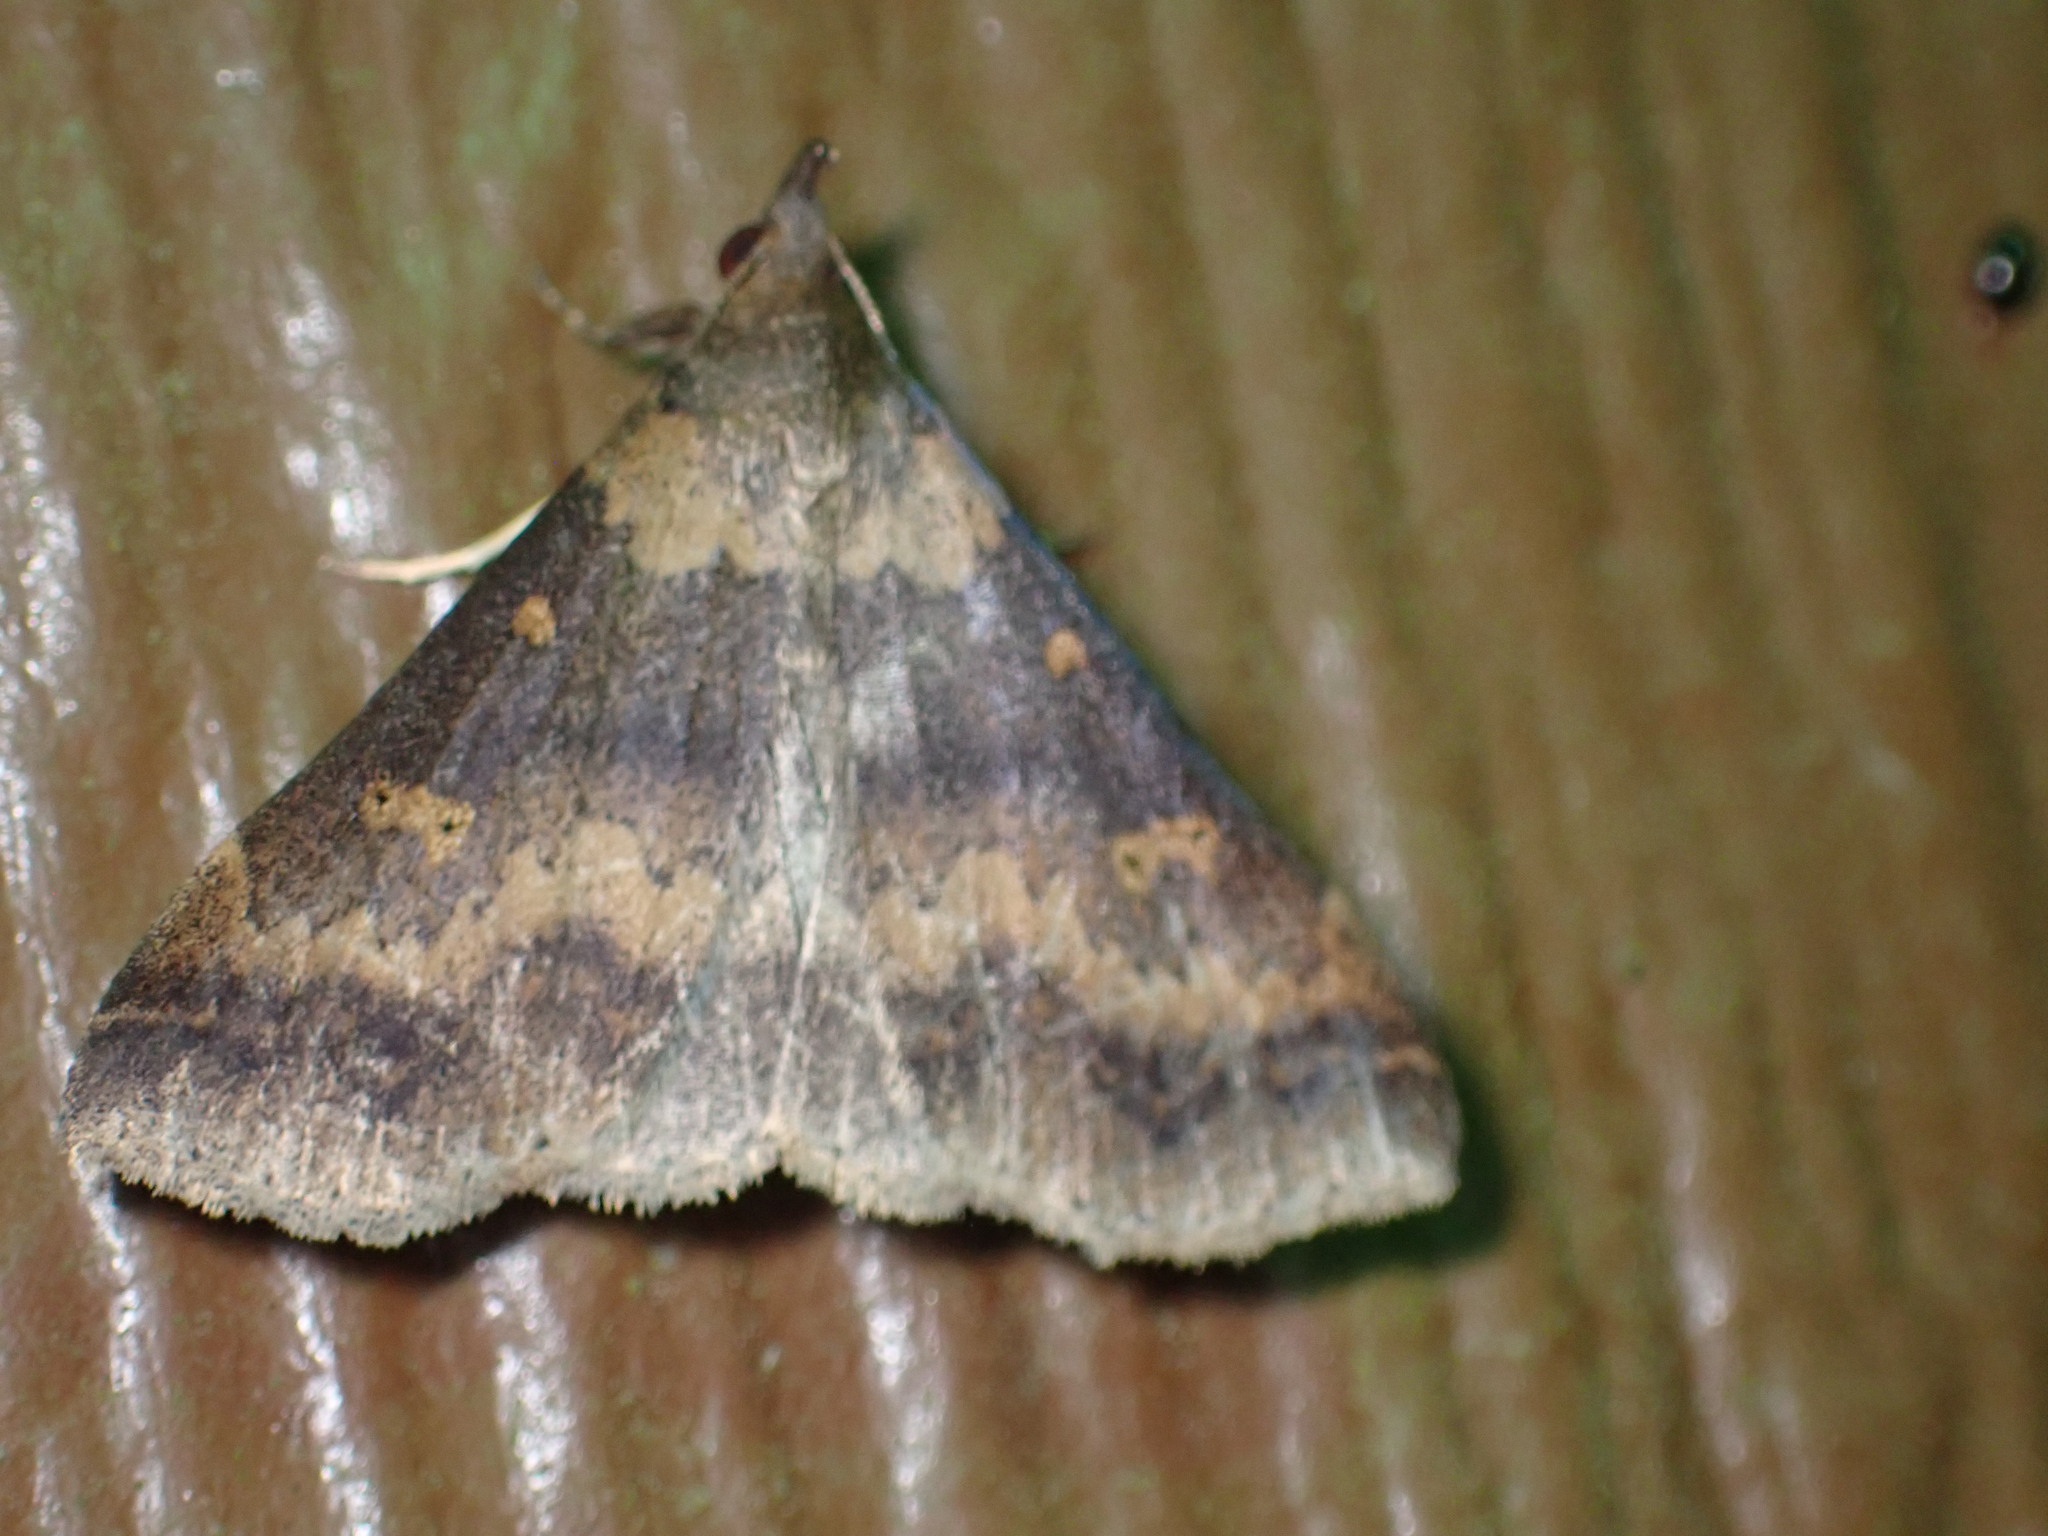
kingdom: Animalia
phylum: Arthropoda
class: Insecta
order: Lepidoptera
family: Erebidae
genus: Renia
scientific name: Renia discoloralis
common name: Discolored renia moth
